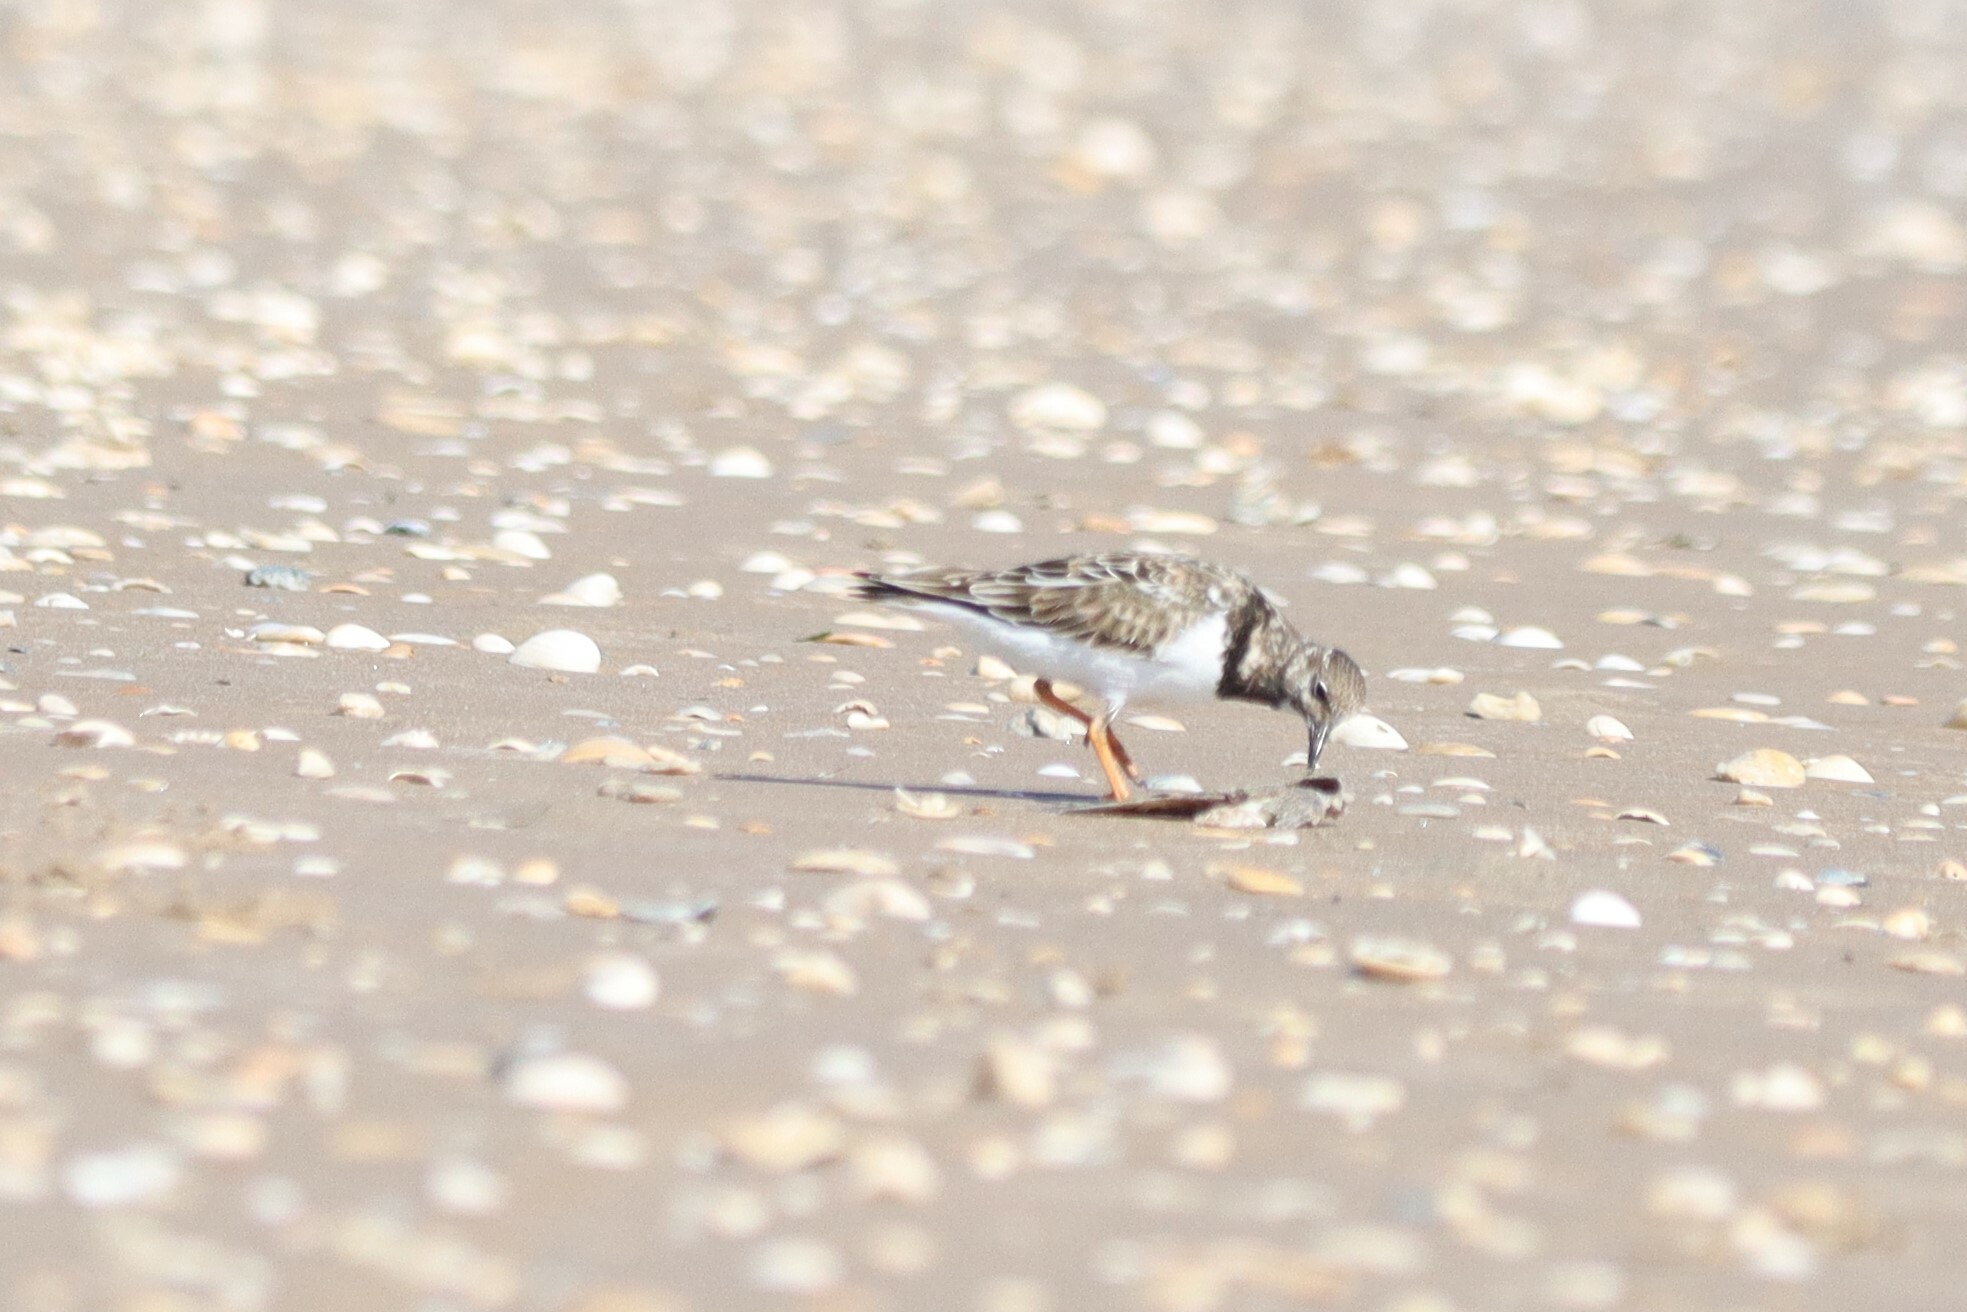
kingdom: Animalia
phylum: Chordata
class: Aves
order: Charadriiformes
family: Scolopacidae
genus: Arenaria
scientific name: Arenaria interpres
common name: Ruddy turnstone
